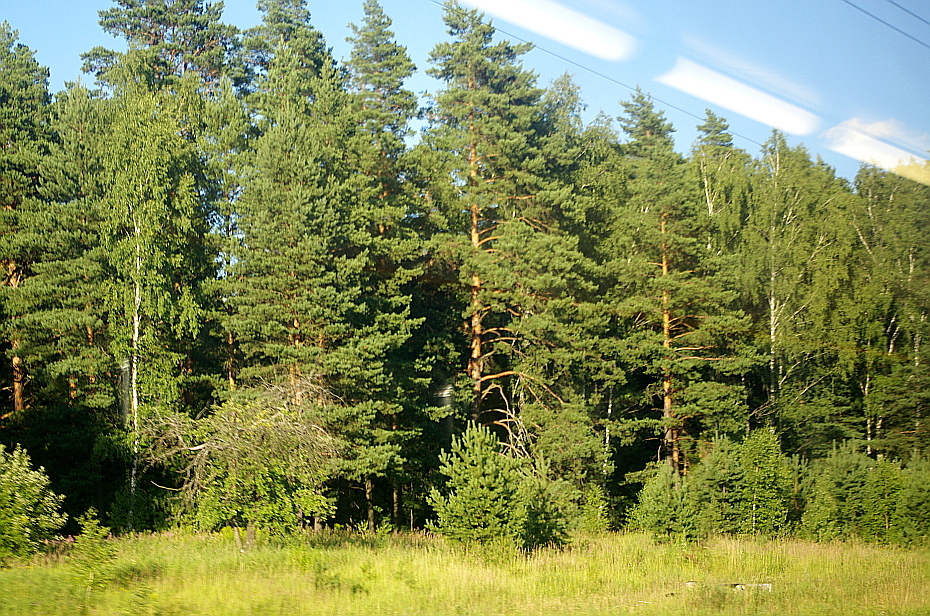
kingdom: Plantae
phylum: Tracheophyta
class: Pinopsida
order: Pinales
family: Pinaceae
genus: Pinus
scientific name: Pinus sylvestris
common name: Scots pine
